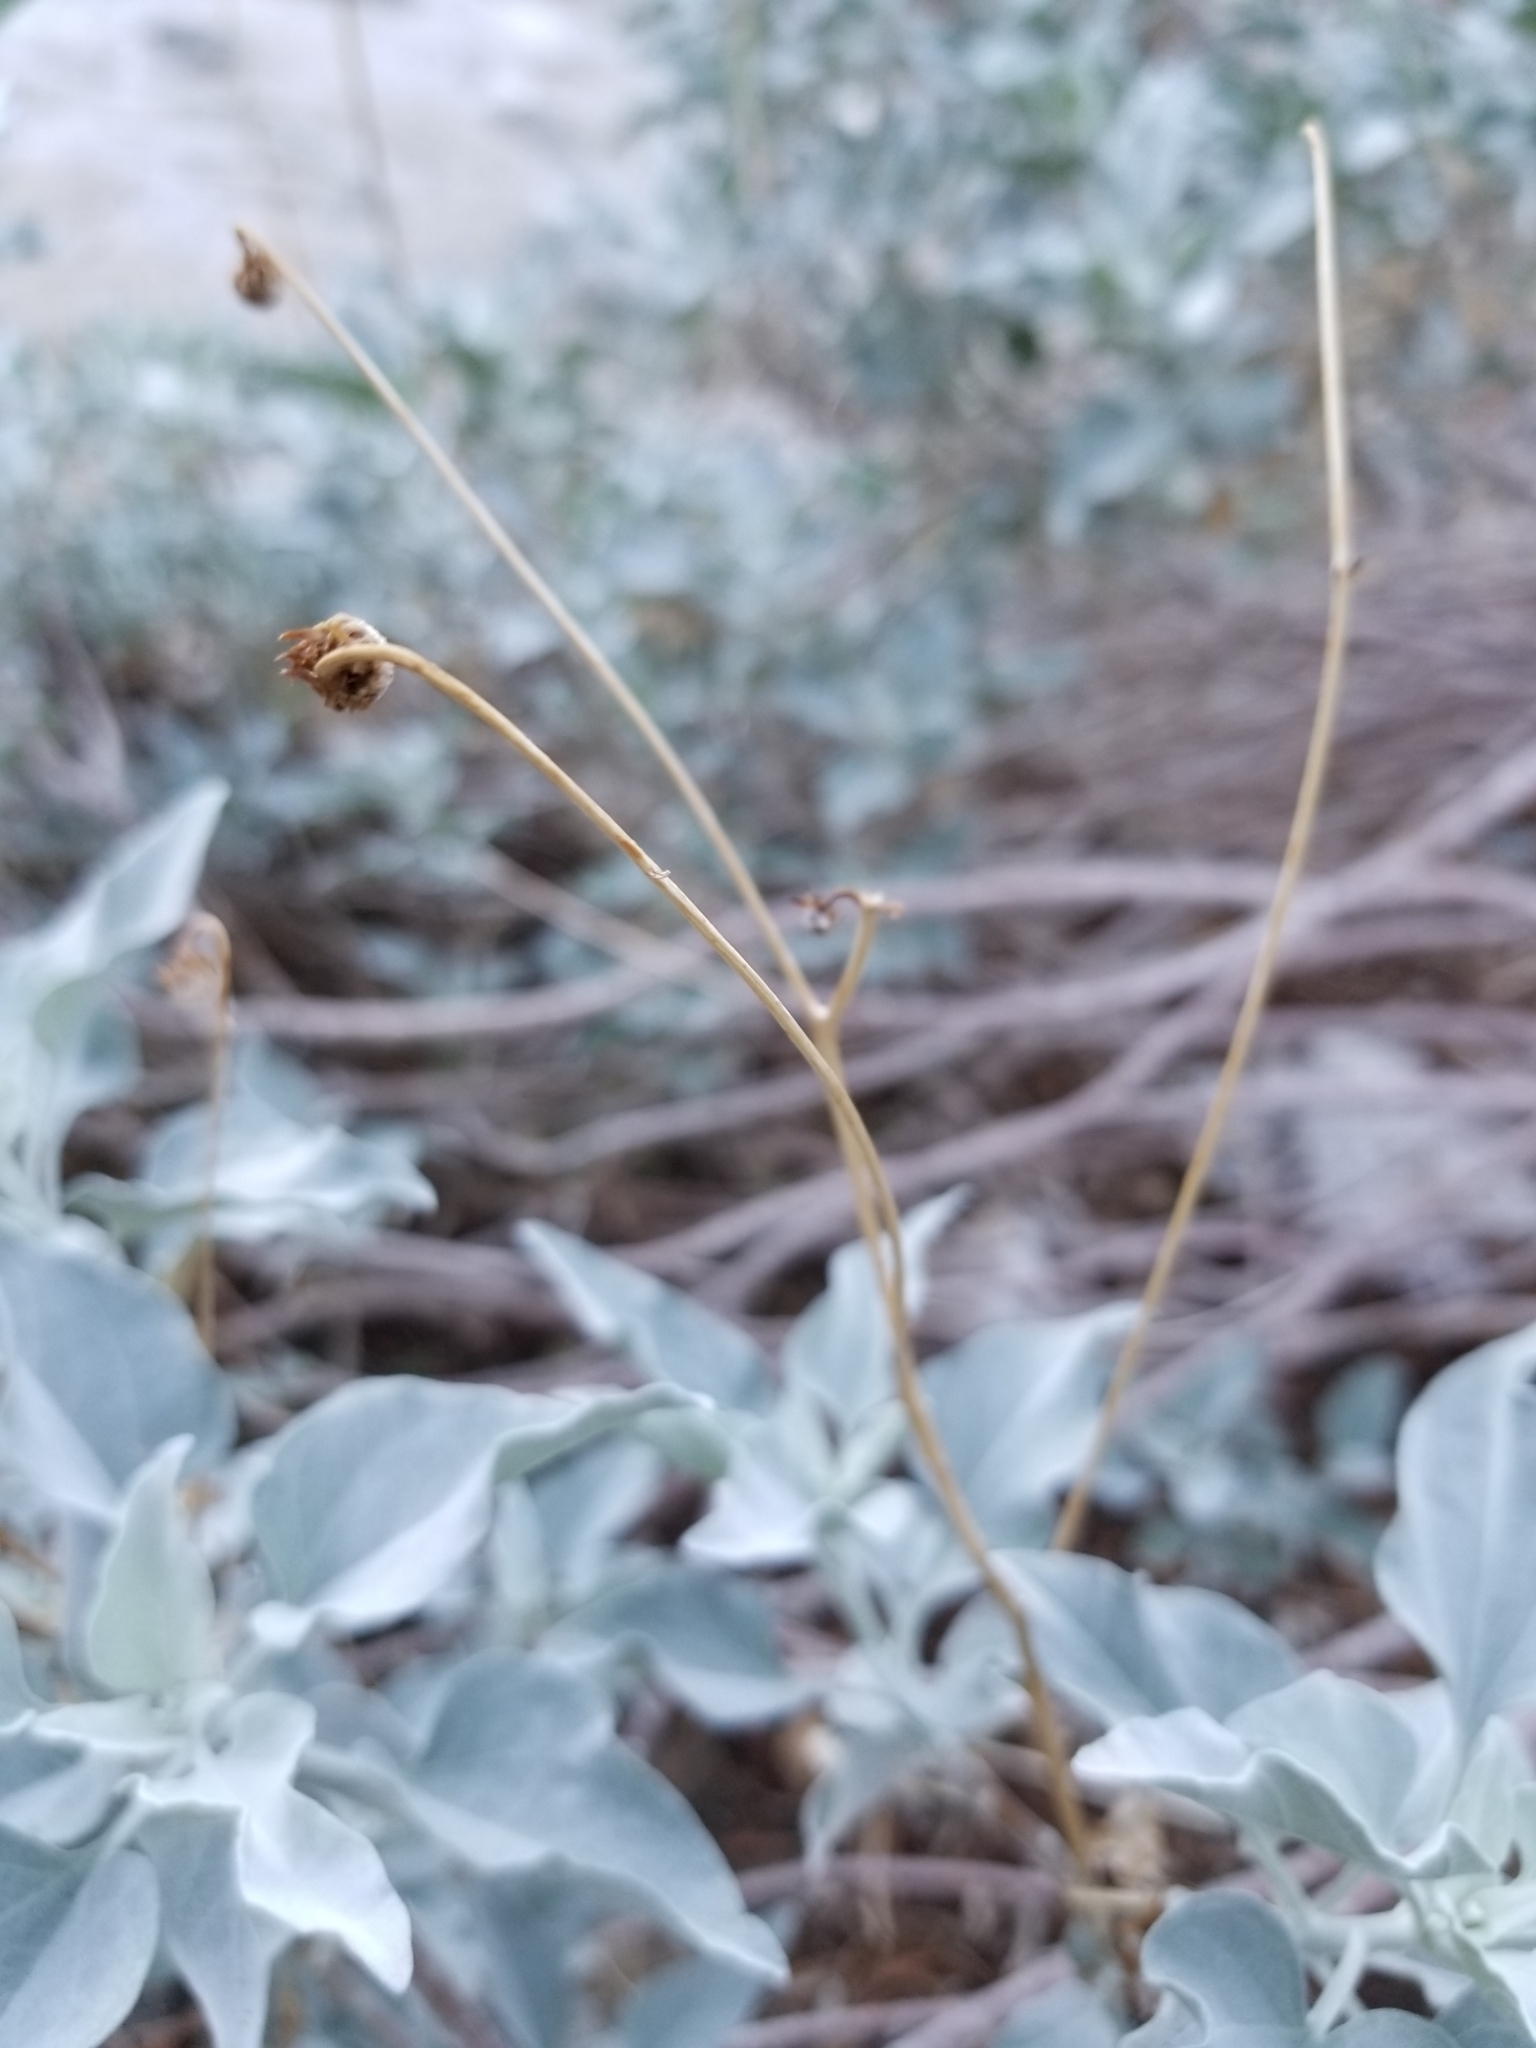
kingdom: Plantae
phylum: Tracheophyta
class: Magnoliopsida
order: Asterales
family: Asteraceae
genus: Encelia
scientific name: Encelia farinosa
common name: Brittlebush
